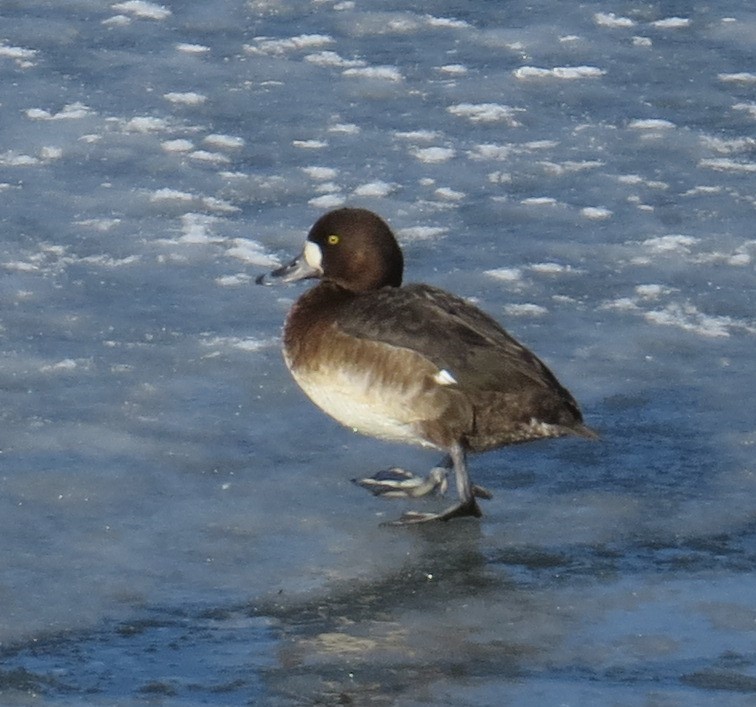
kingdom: Animalia
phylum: Chordata
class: Aves
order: Anseriformes
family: Anatidae
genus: Aythya
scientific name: Aythya marila
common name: Greater scaup
